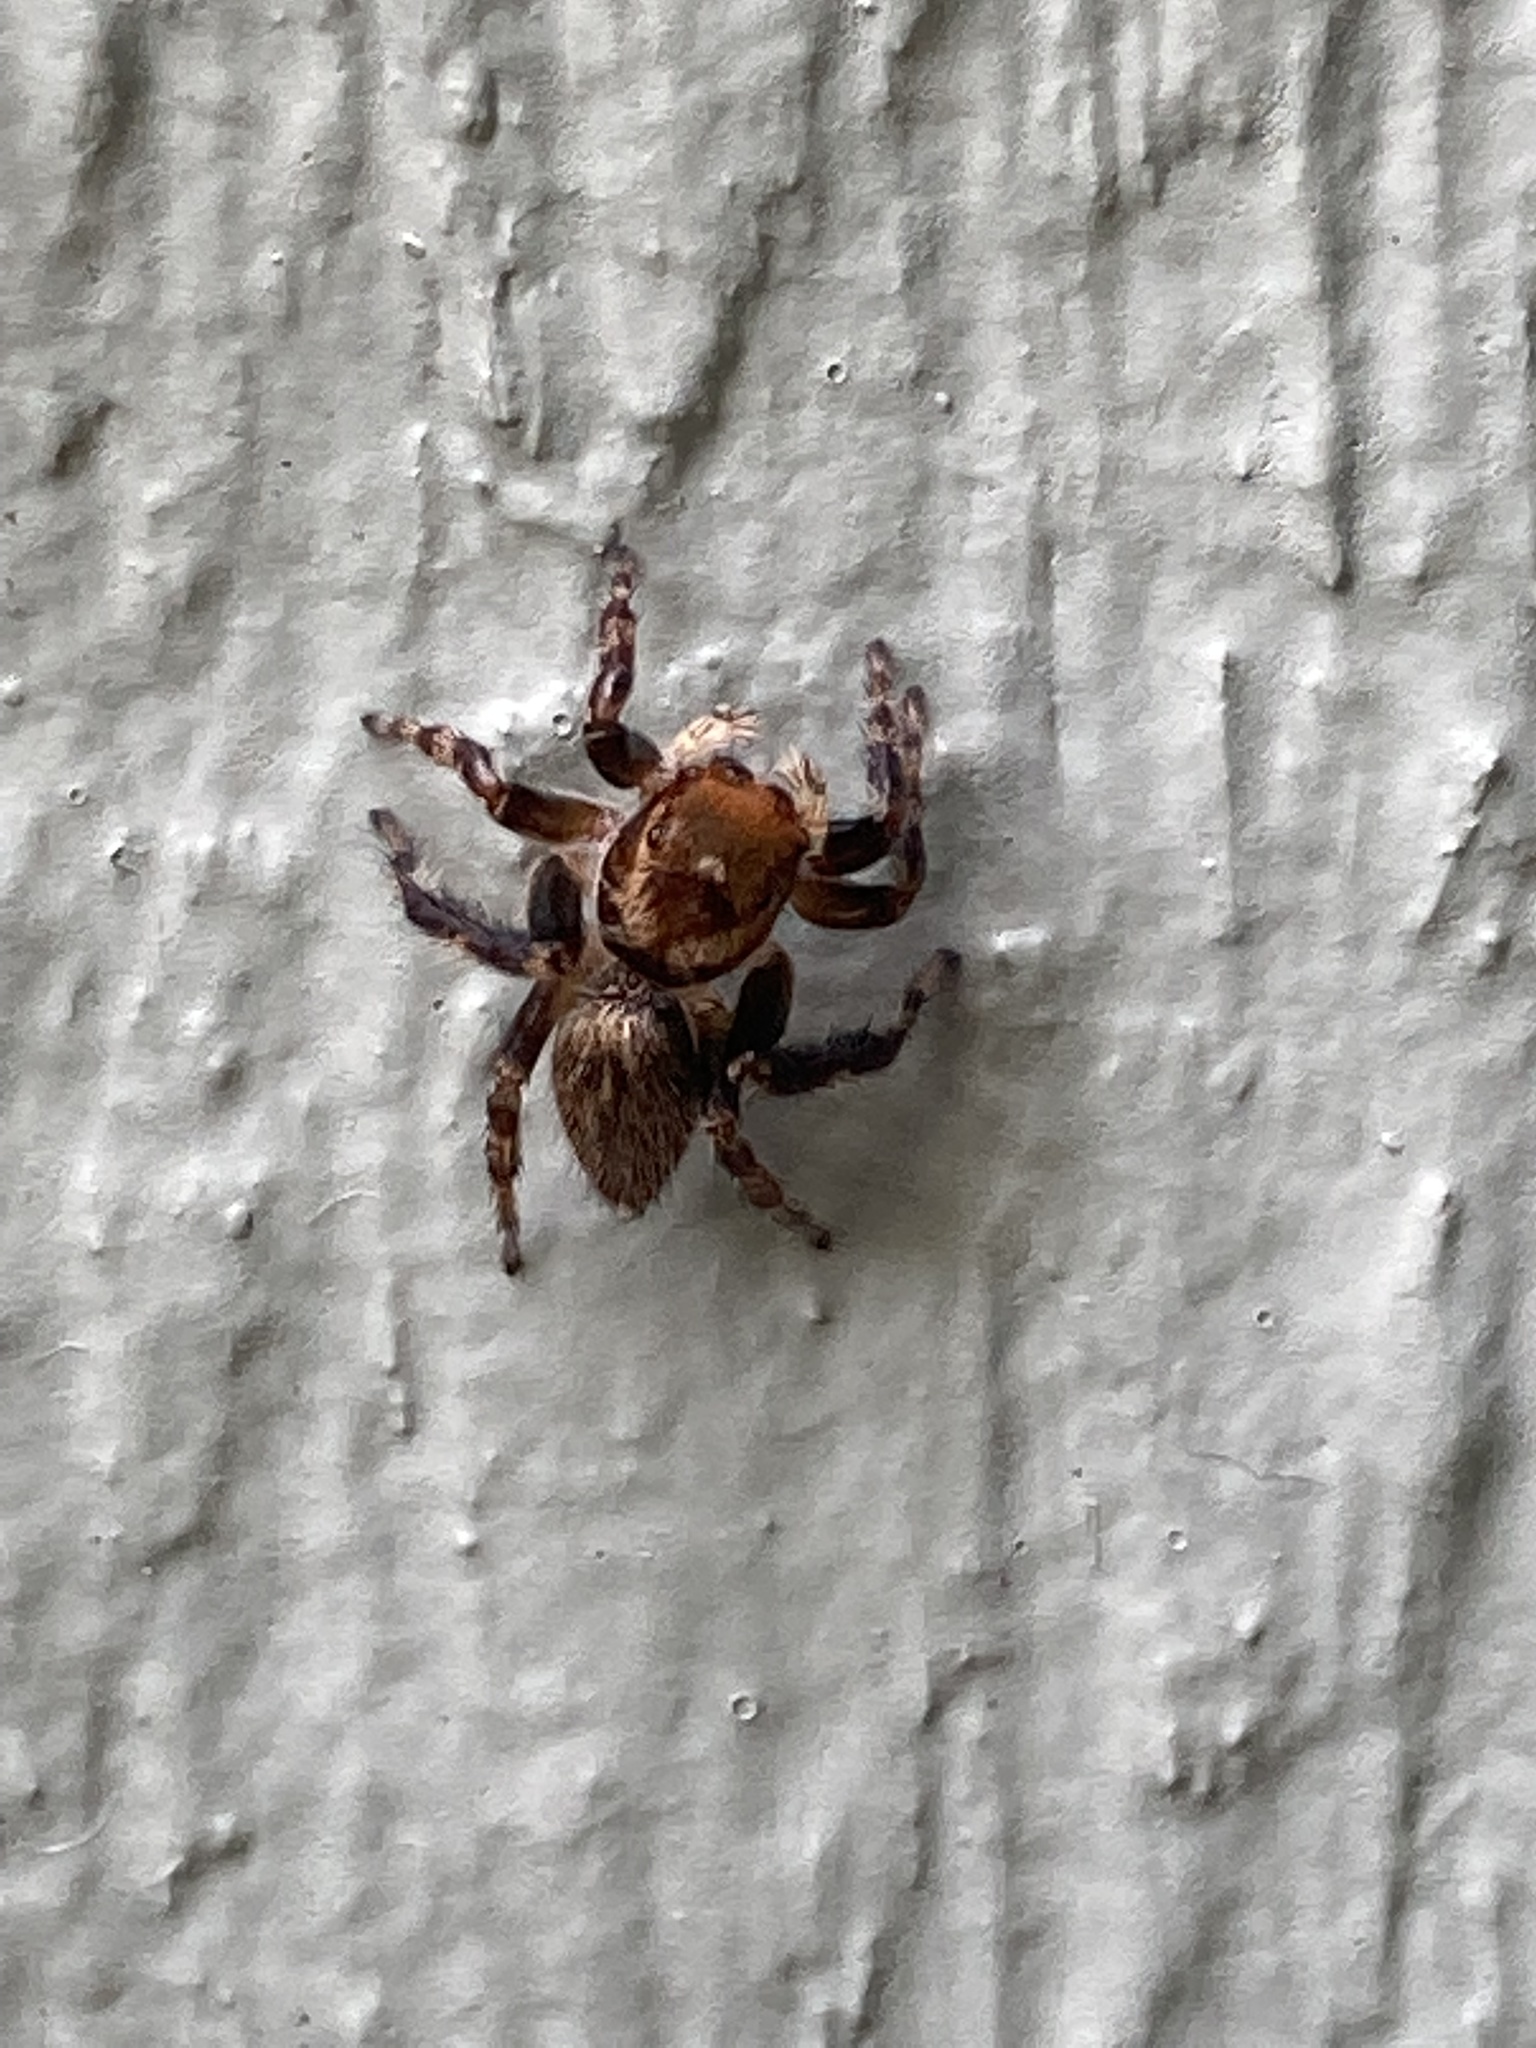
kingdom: Animalia
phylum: Arthropoda
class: Arachnida
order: Araneae
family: Salticidae
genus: Maratus
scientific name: Maratus griseus
